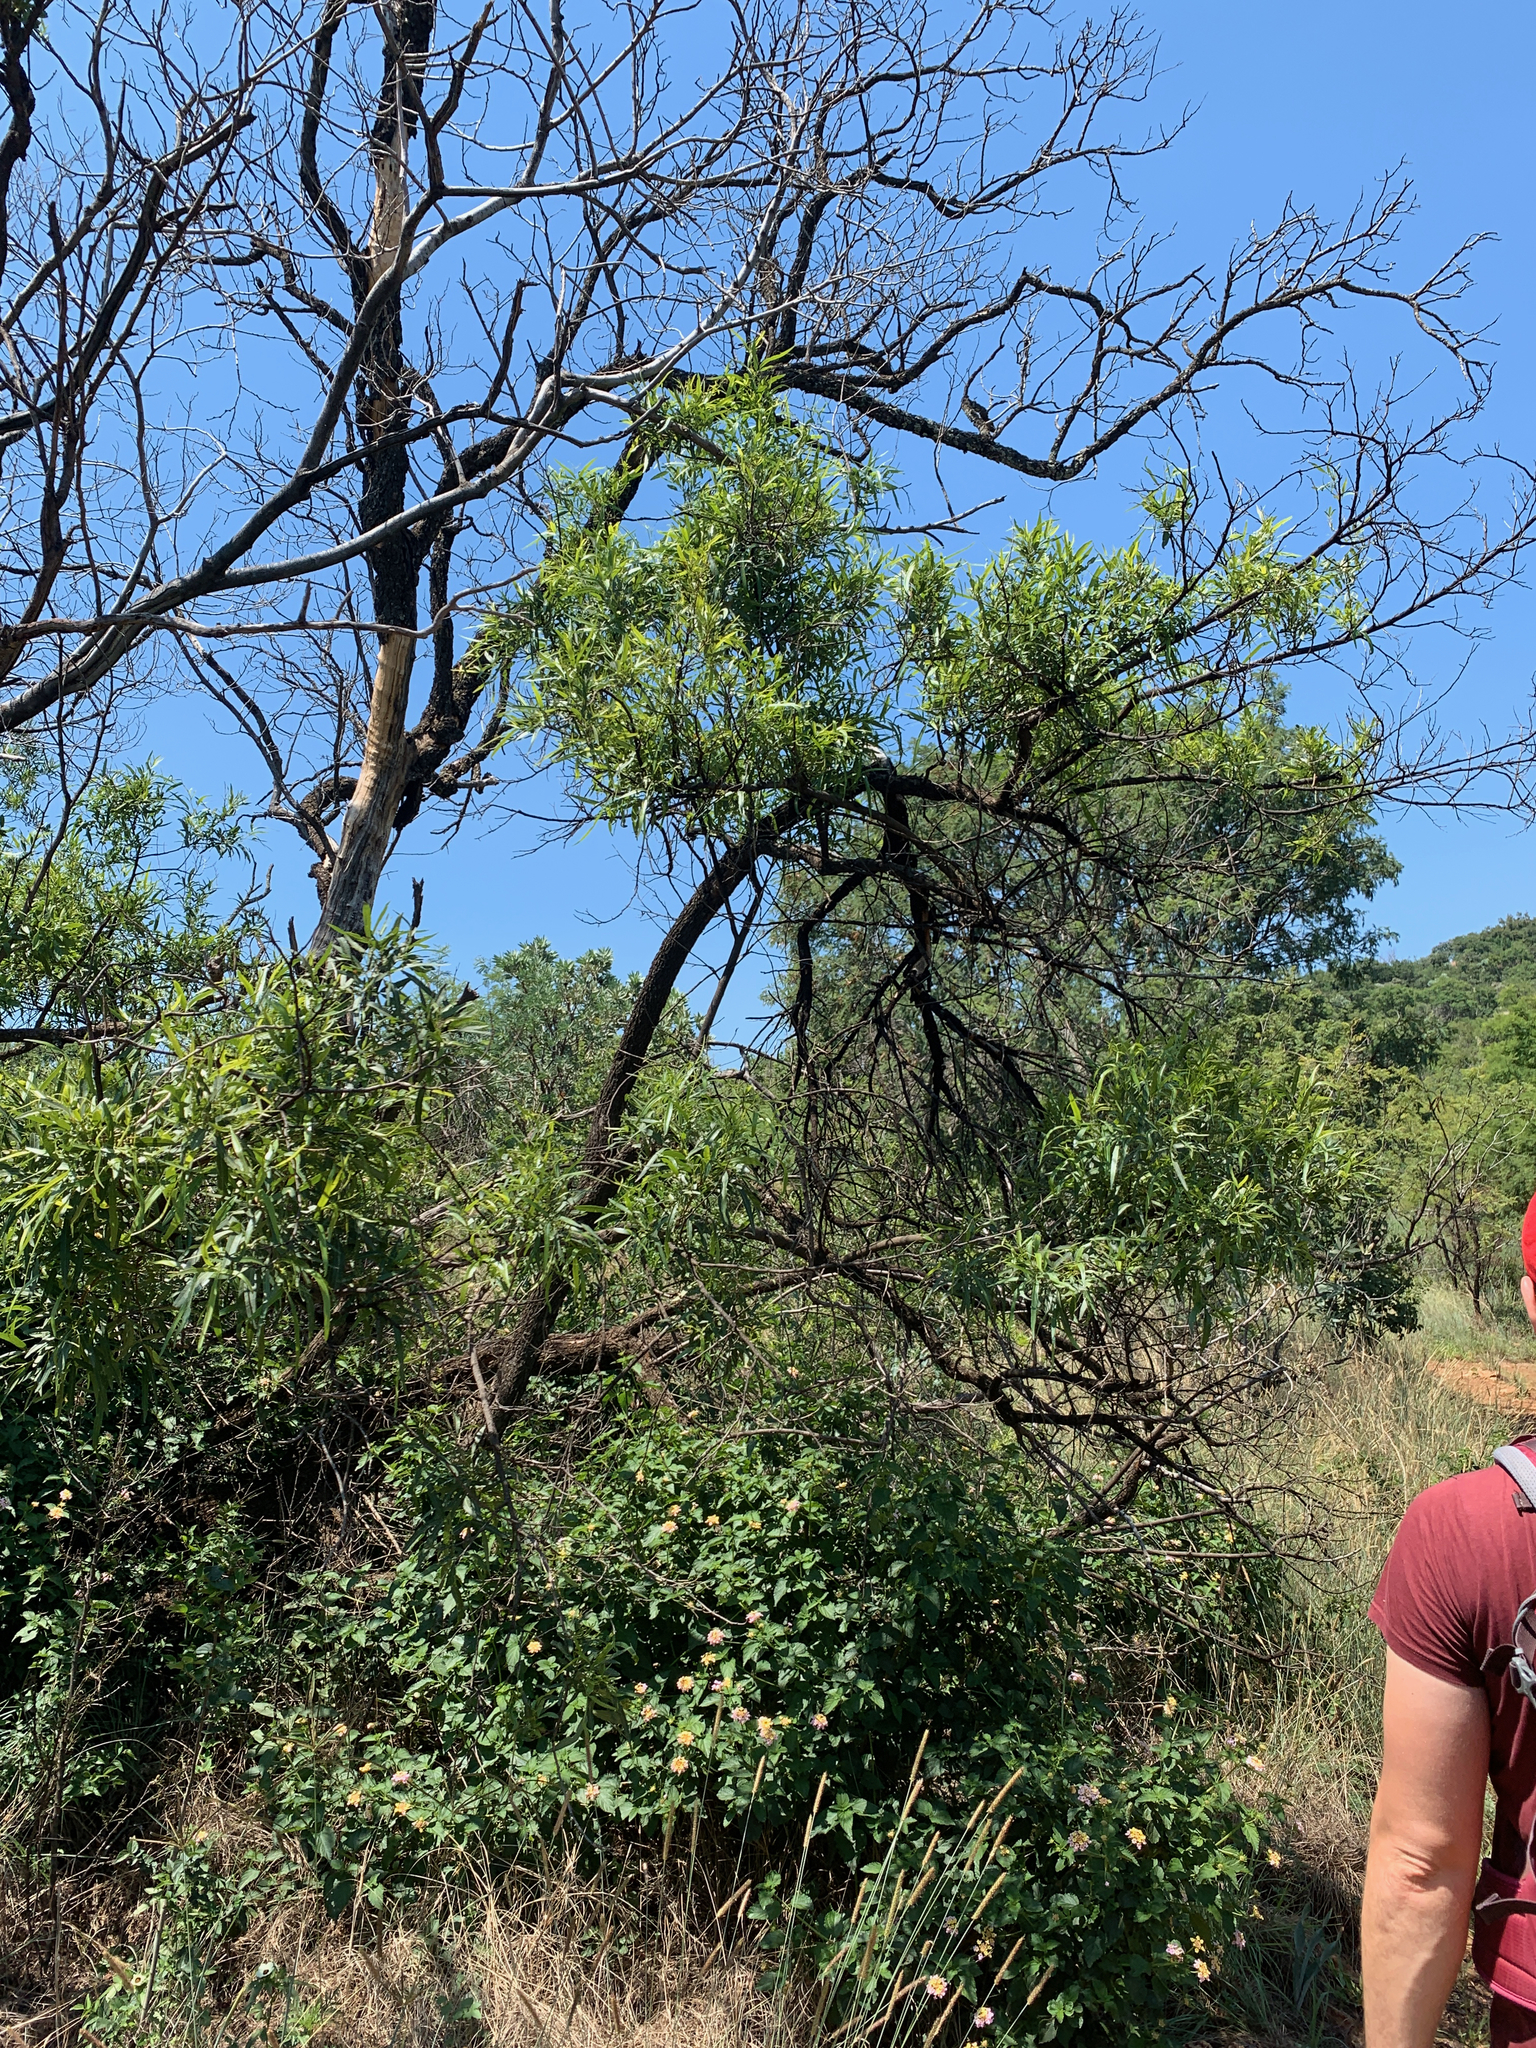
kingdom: Plantae
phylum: Tracheophyta
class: Magnoliopsida
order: Sapindales
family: Anacardiaceae
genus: Searsia
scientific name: Searsia lancea
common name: Cashew
